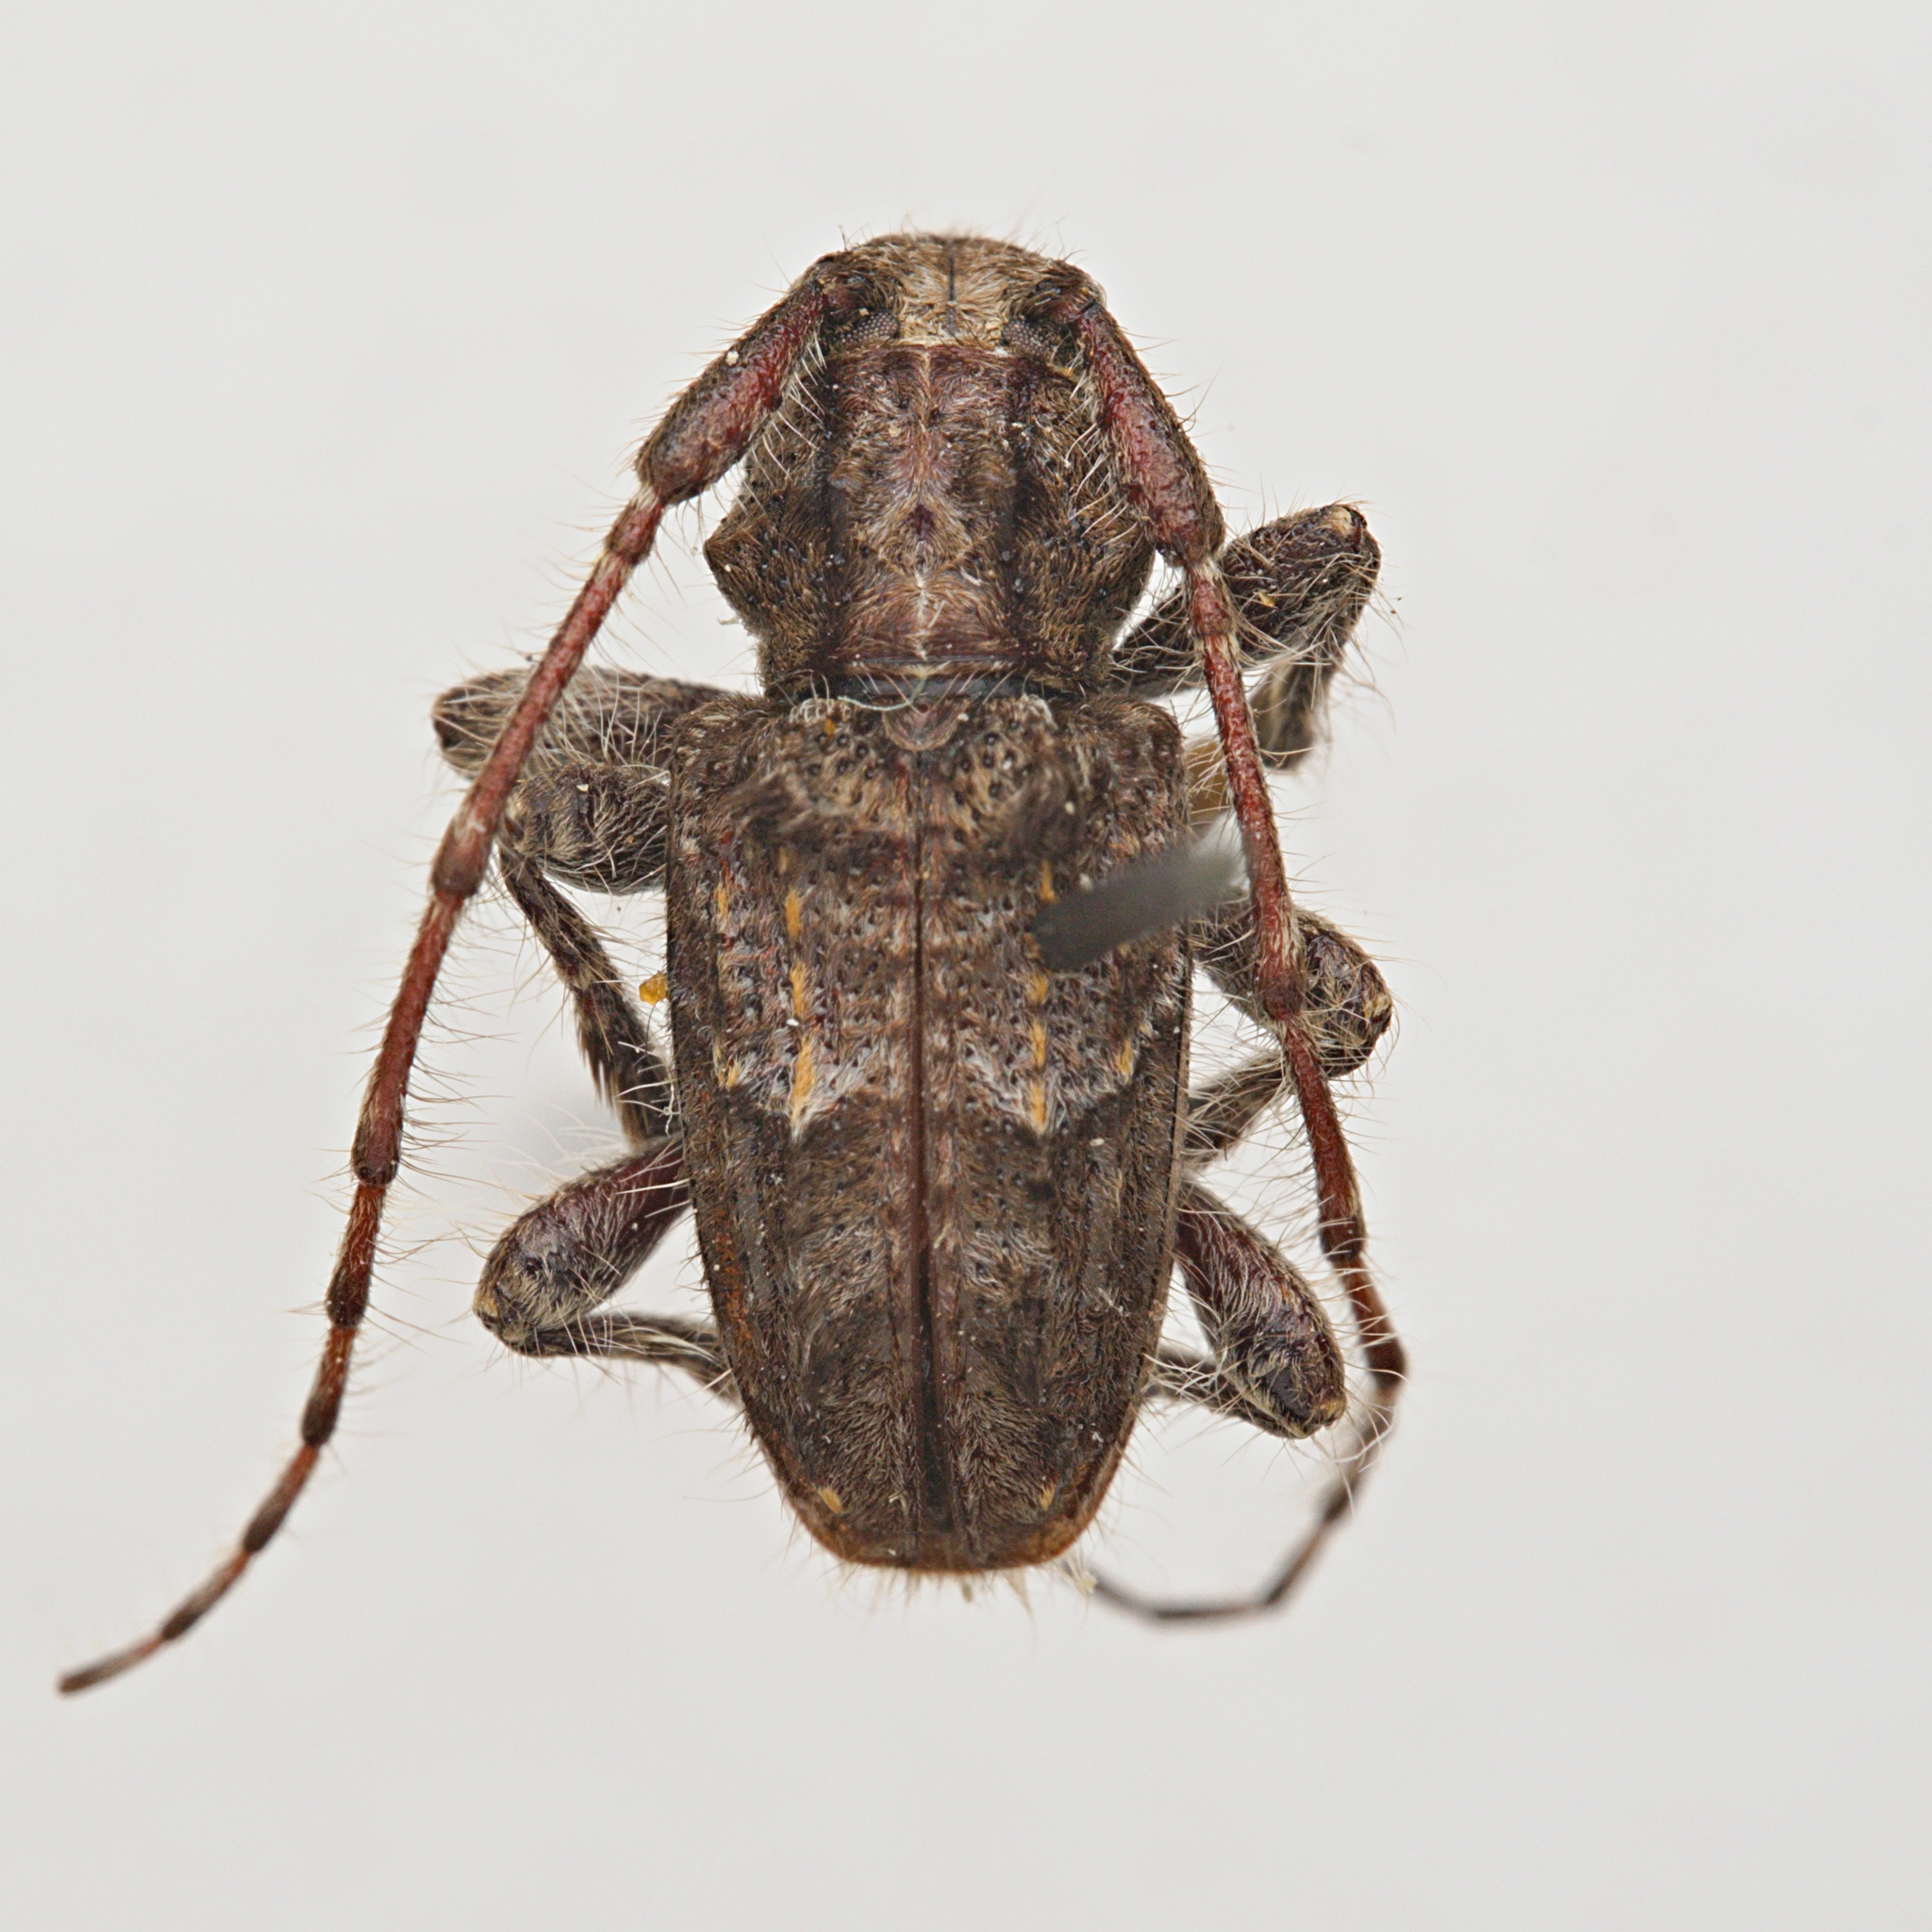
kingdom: Animalia
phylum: Arthropoda
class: Insecta
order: Coleoptera
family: Cerambycidae
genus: Alphomorphus
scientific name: Alphomorphus vandykei
